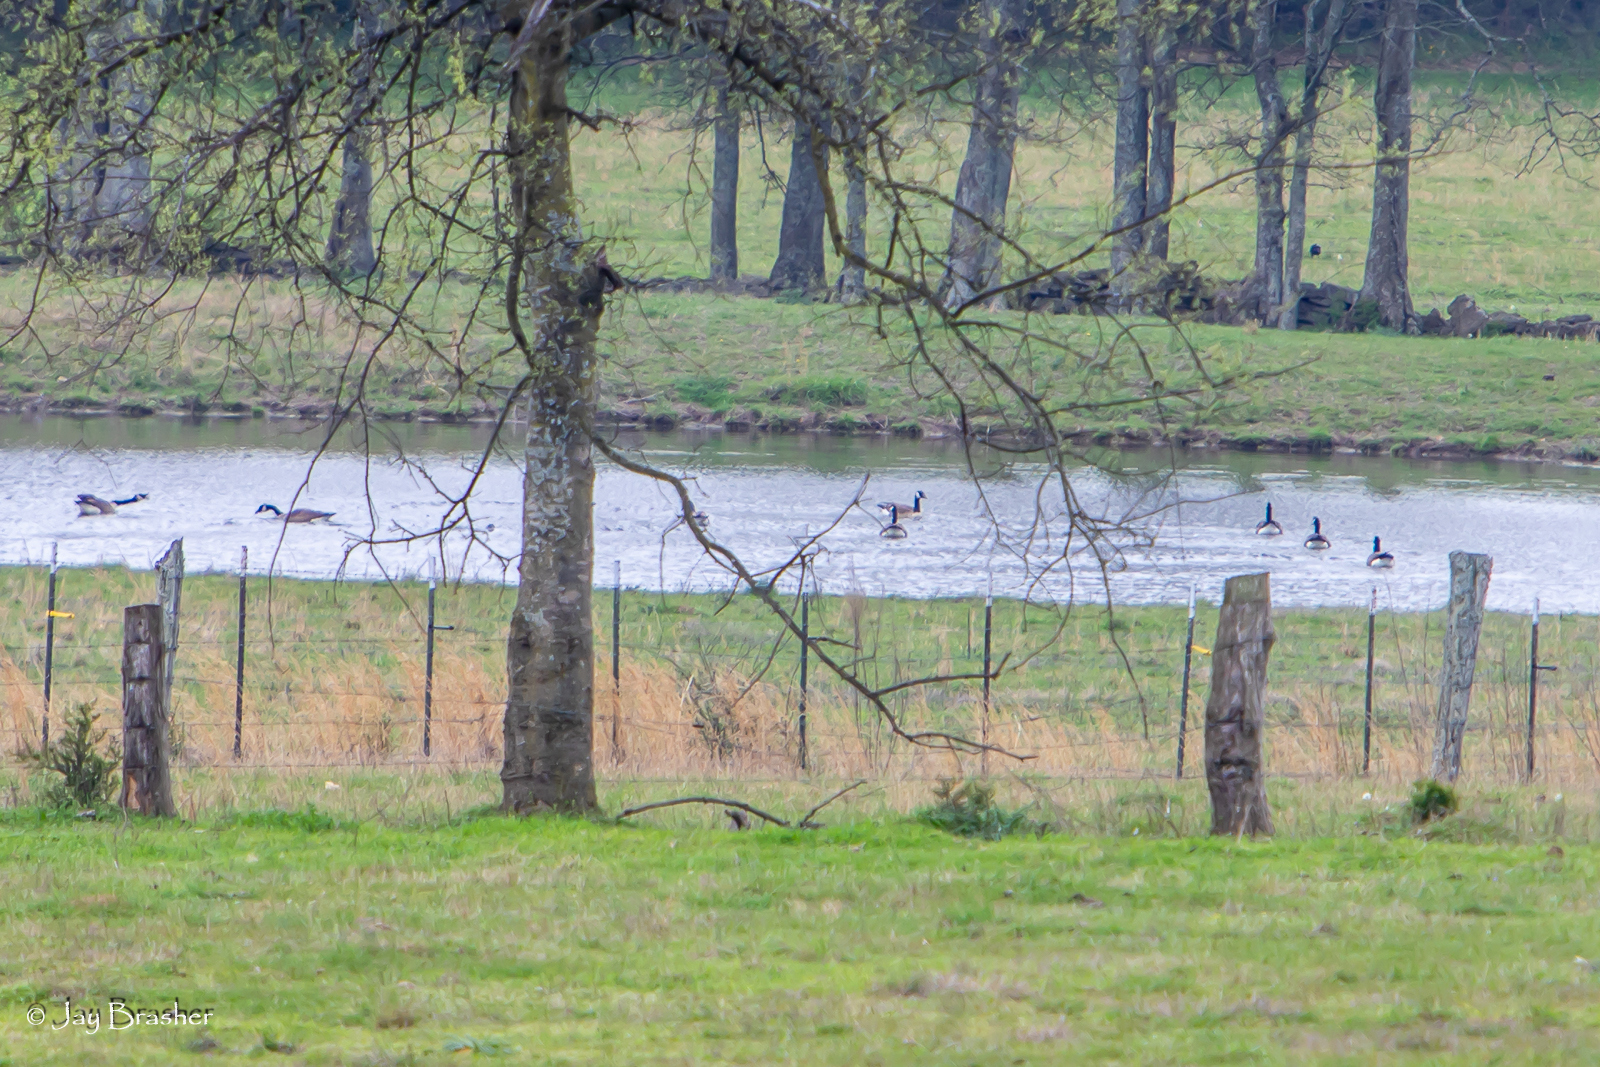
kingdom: Animalia
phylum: Chordata
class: Aves
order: Anseriformes
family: Anatidae
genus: Branta
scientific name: Branta canadensis
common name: Canada goose
